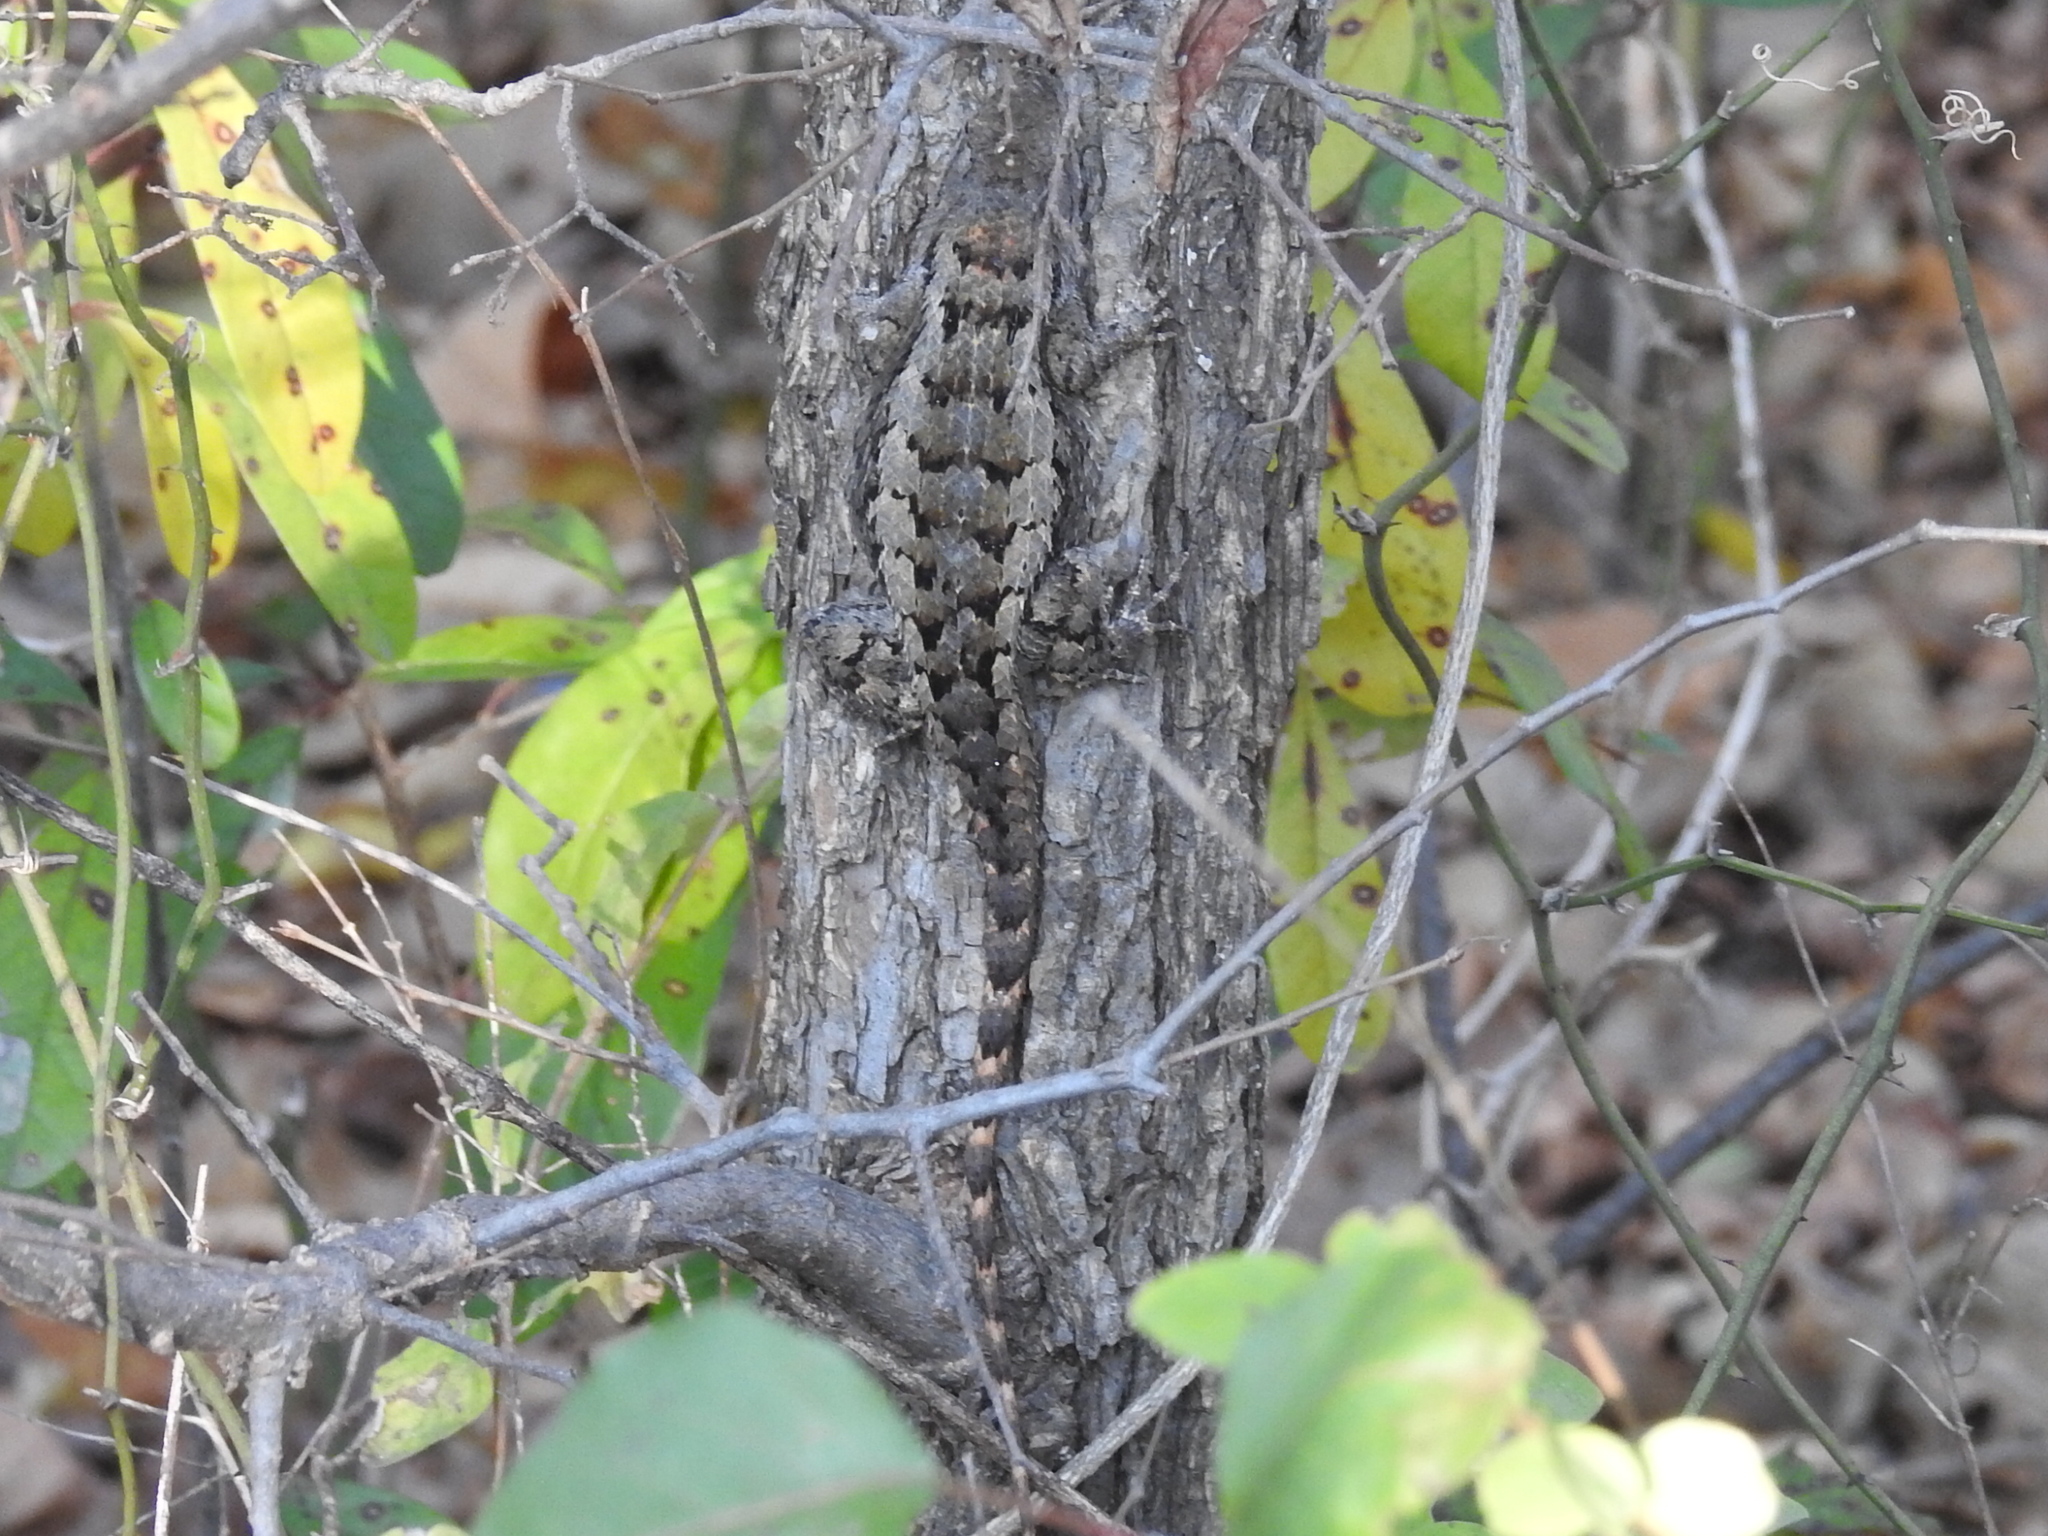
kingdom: Animalia
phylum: Chordata
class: Squamata
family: Phrynosomatidae
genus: Sceloporus
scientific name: Sceloporus olivaceus
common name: Texas spiny lizard
